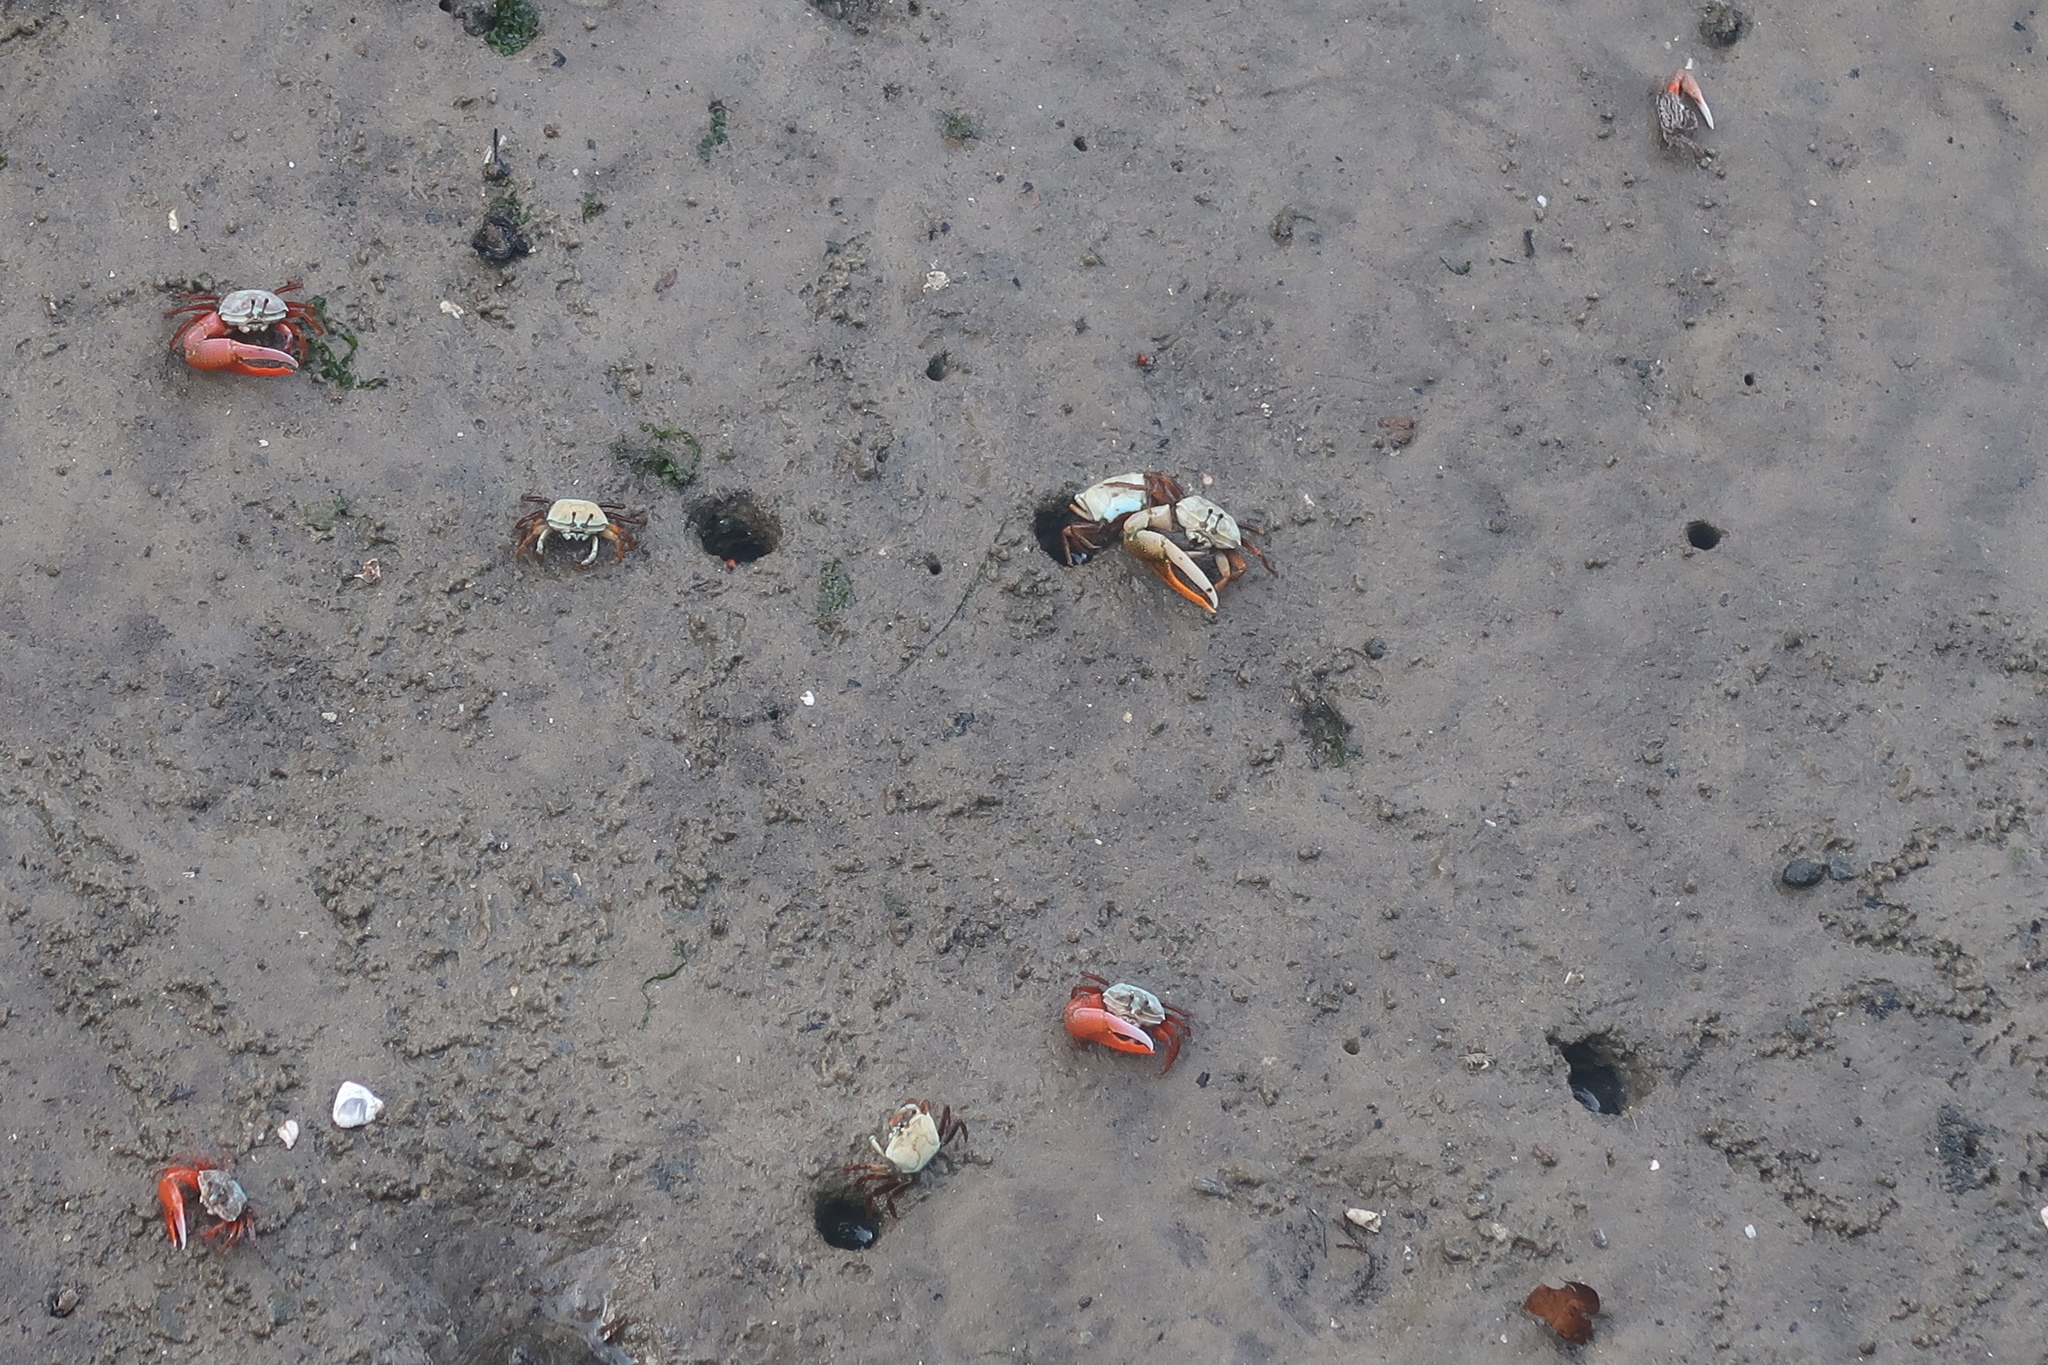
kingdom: Animalia
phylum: Arthropoda
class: Malacostraca
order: Decapoda
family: Ocypodidae
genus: Gelasimus
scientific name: Gelasimus vocans
